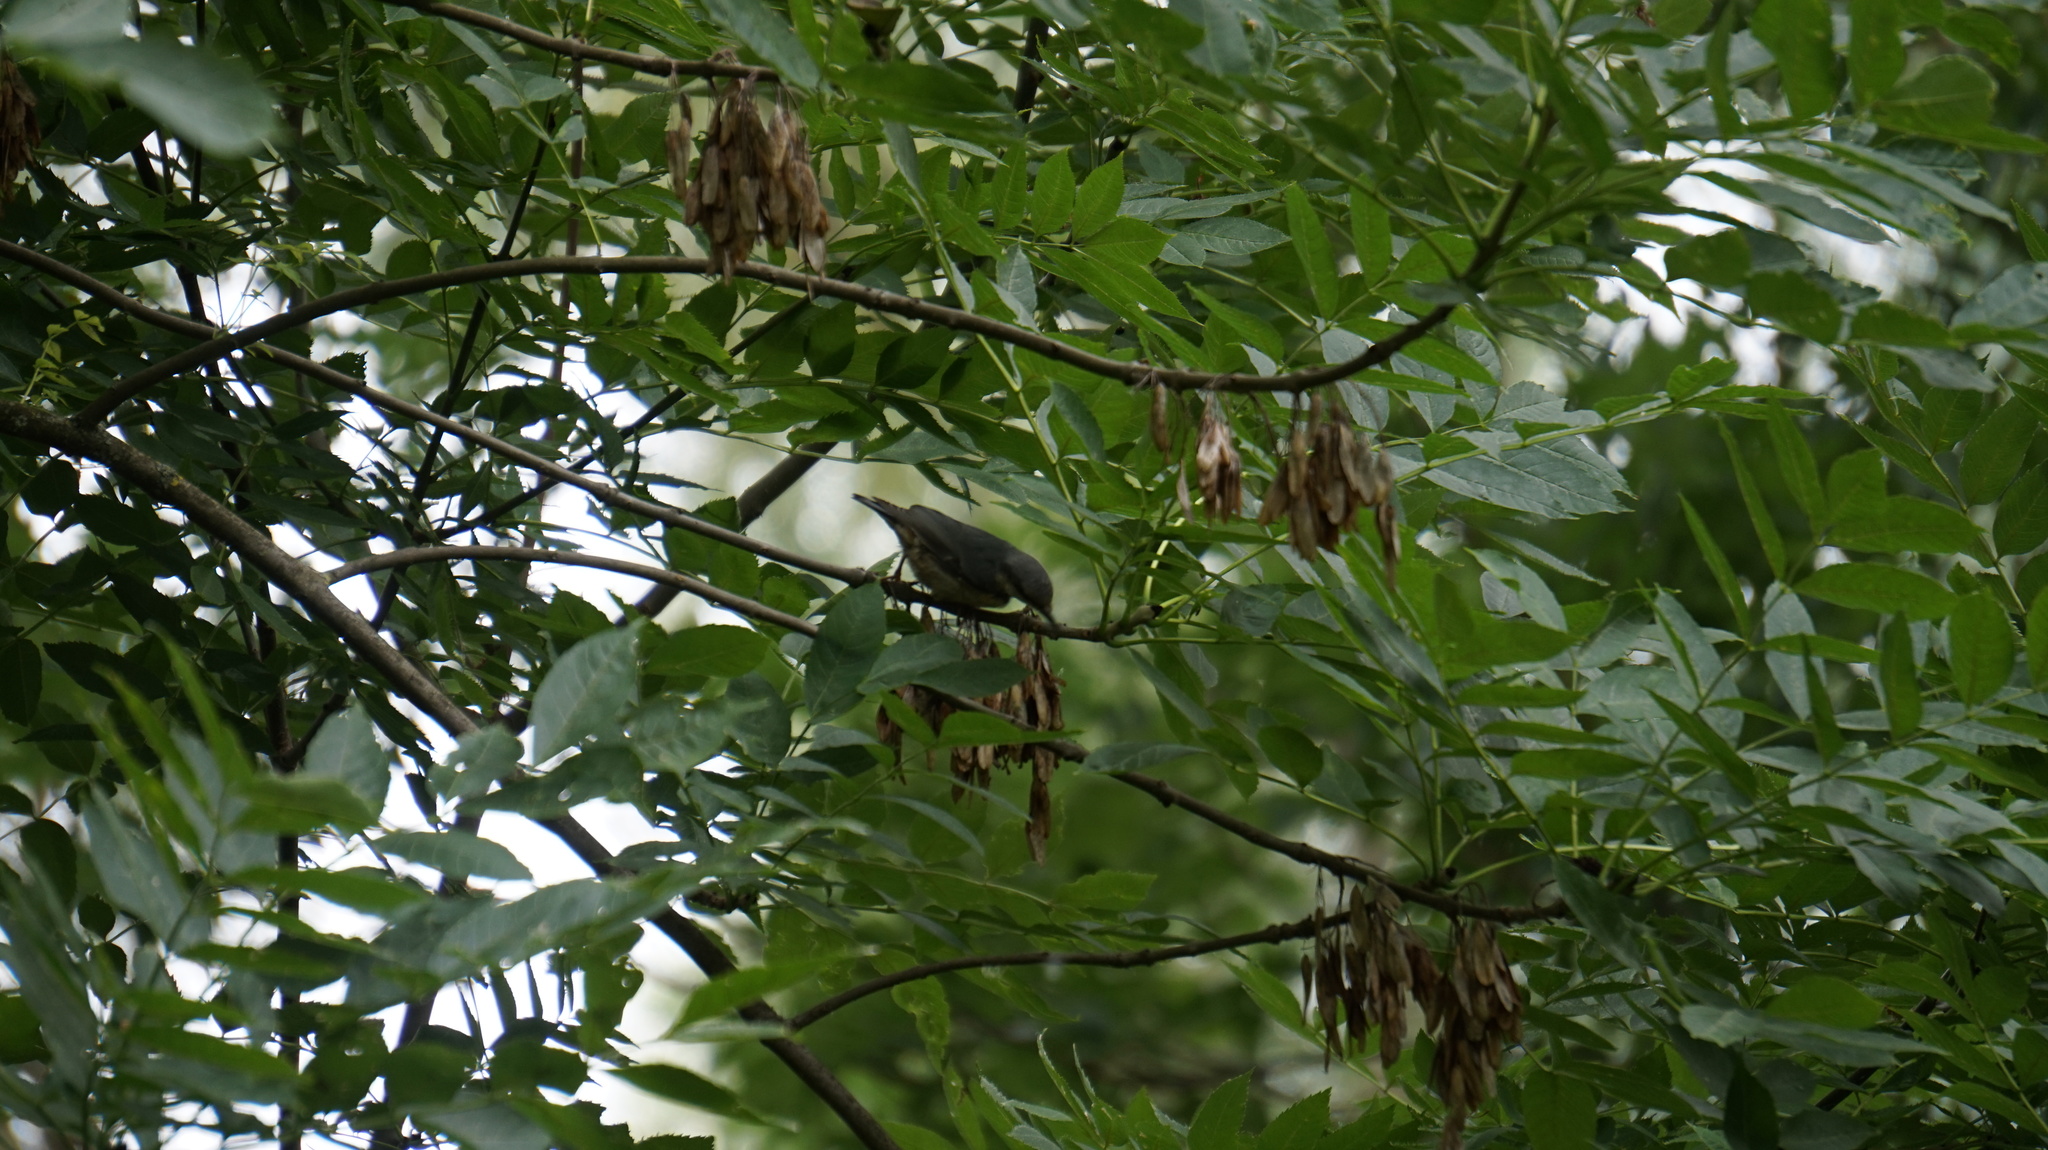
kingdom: Animalia
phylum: Chordata
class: Aves
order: Passeriformes
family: Sittidae
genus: Sitta
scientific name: Sitta europaea
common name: Eurasian nuthatch
